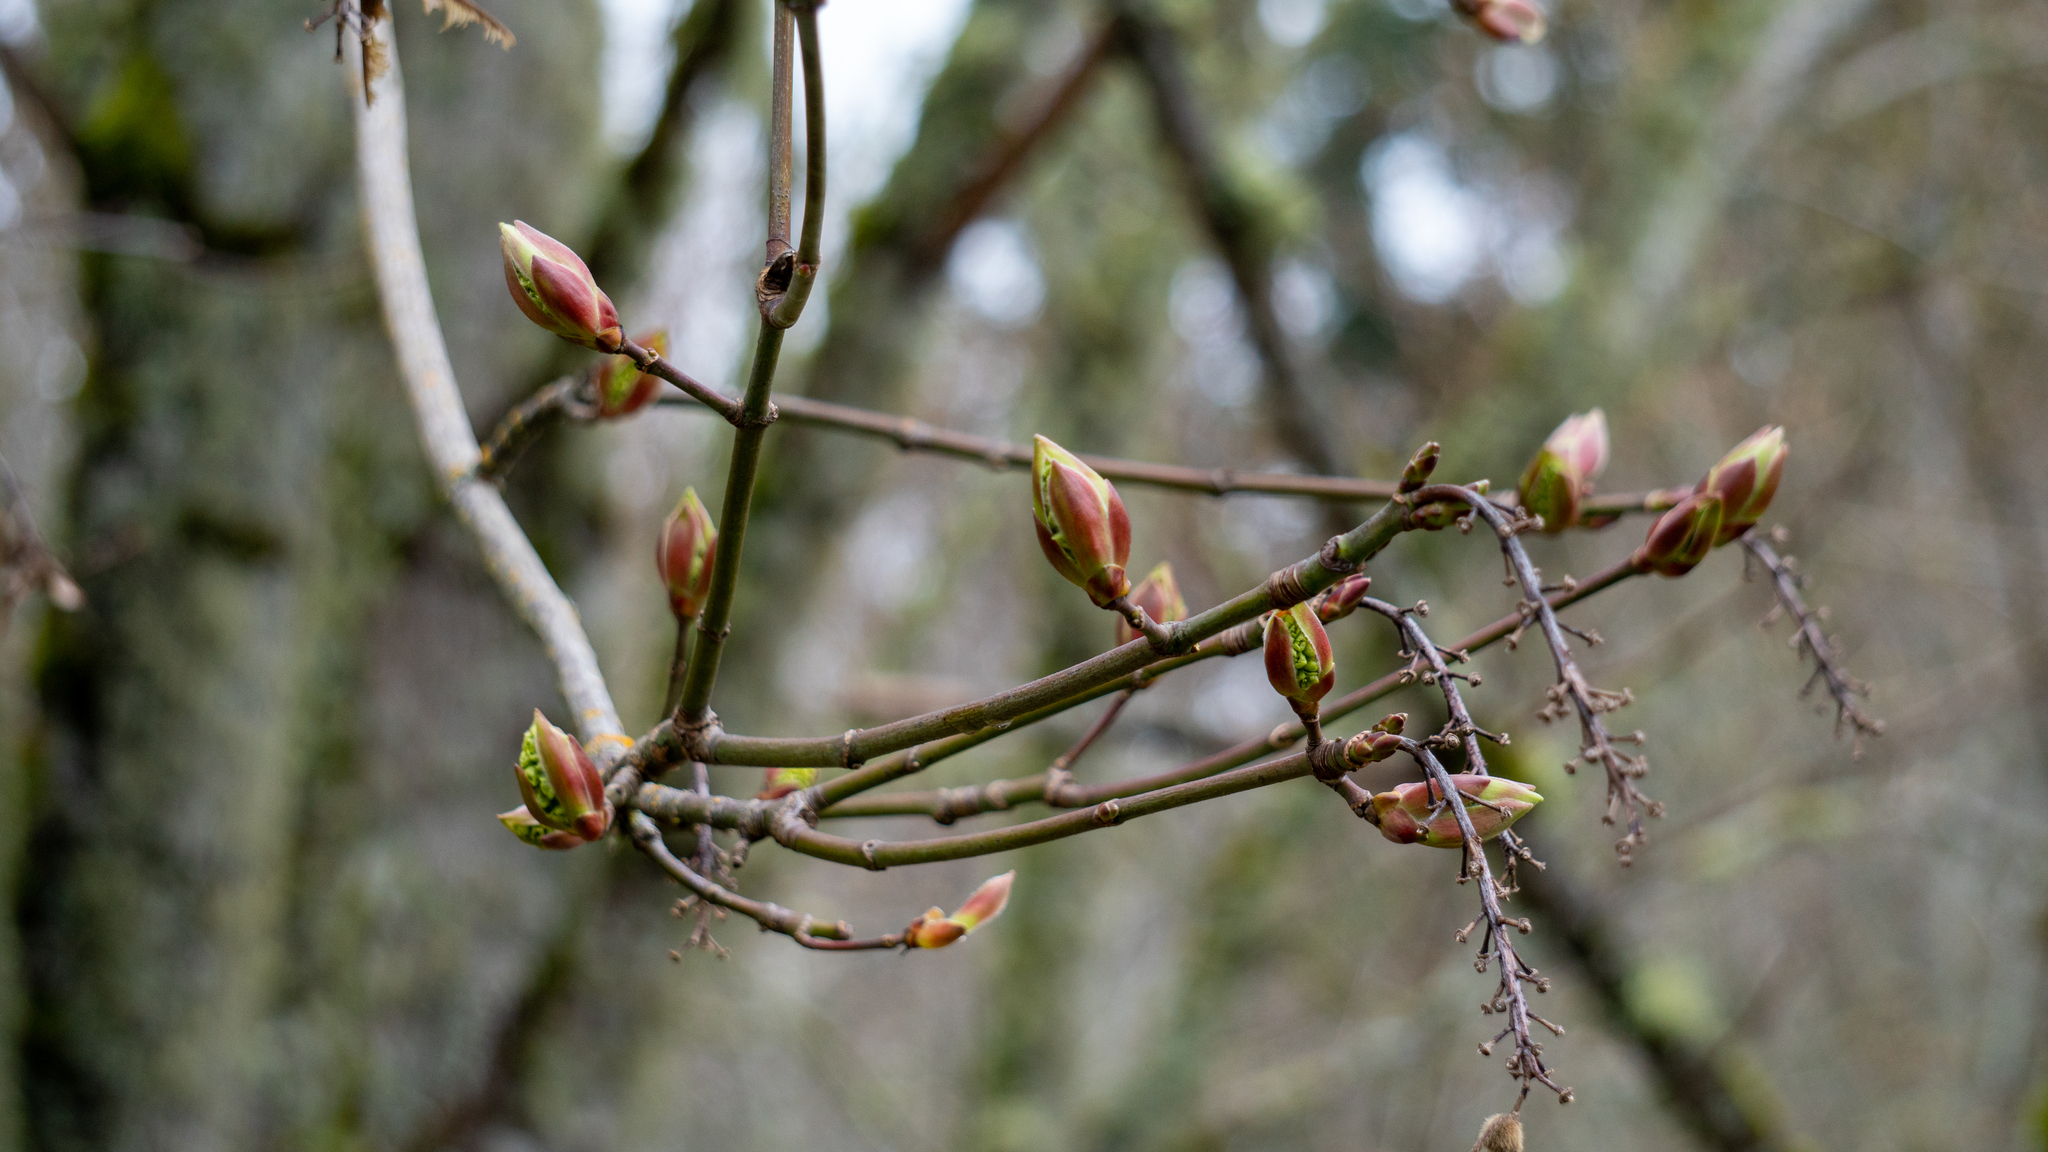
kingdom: Plantae
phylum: Tracheophyta
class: Magnoliopsida
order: Sapindales
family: Sapindaceae
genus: Acer
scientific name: Acer macrophyllum
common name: Oregon maple
